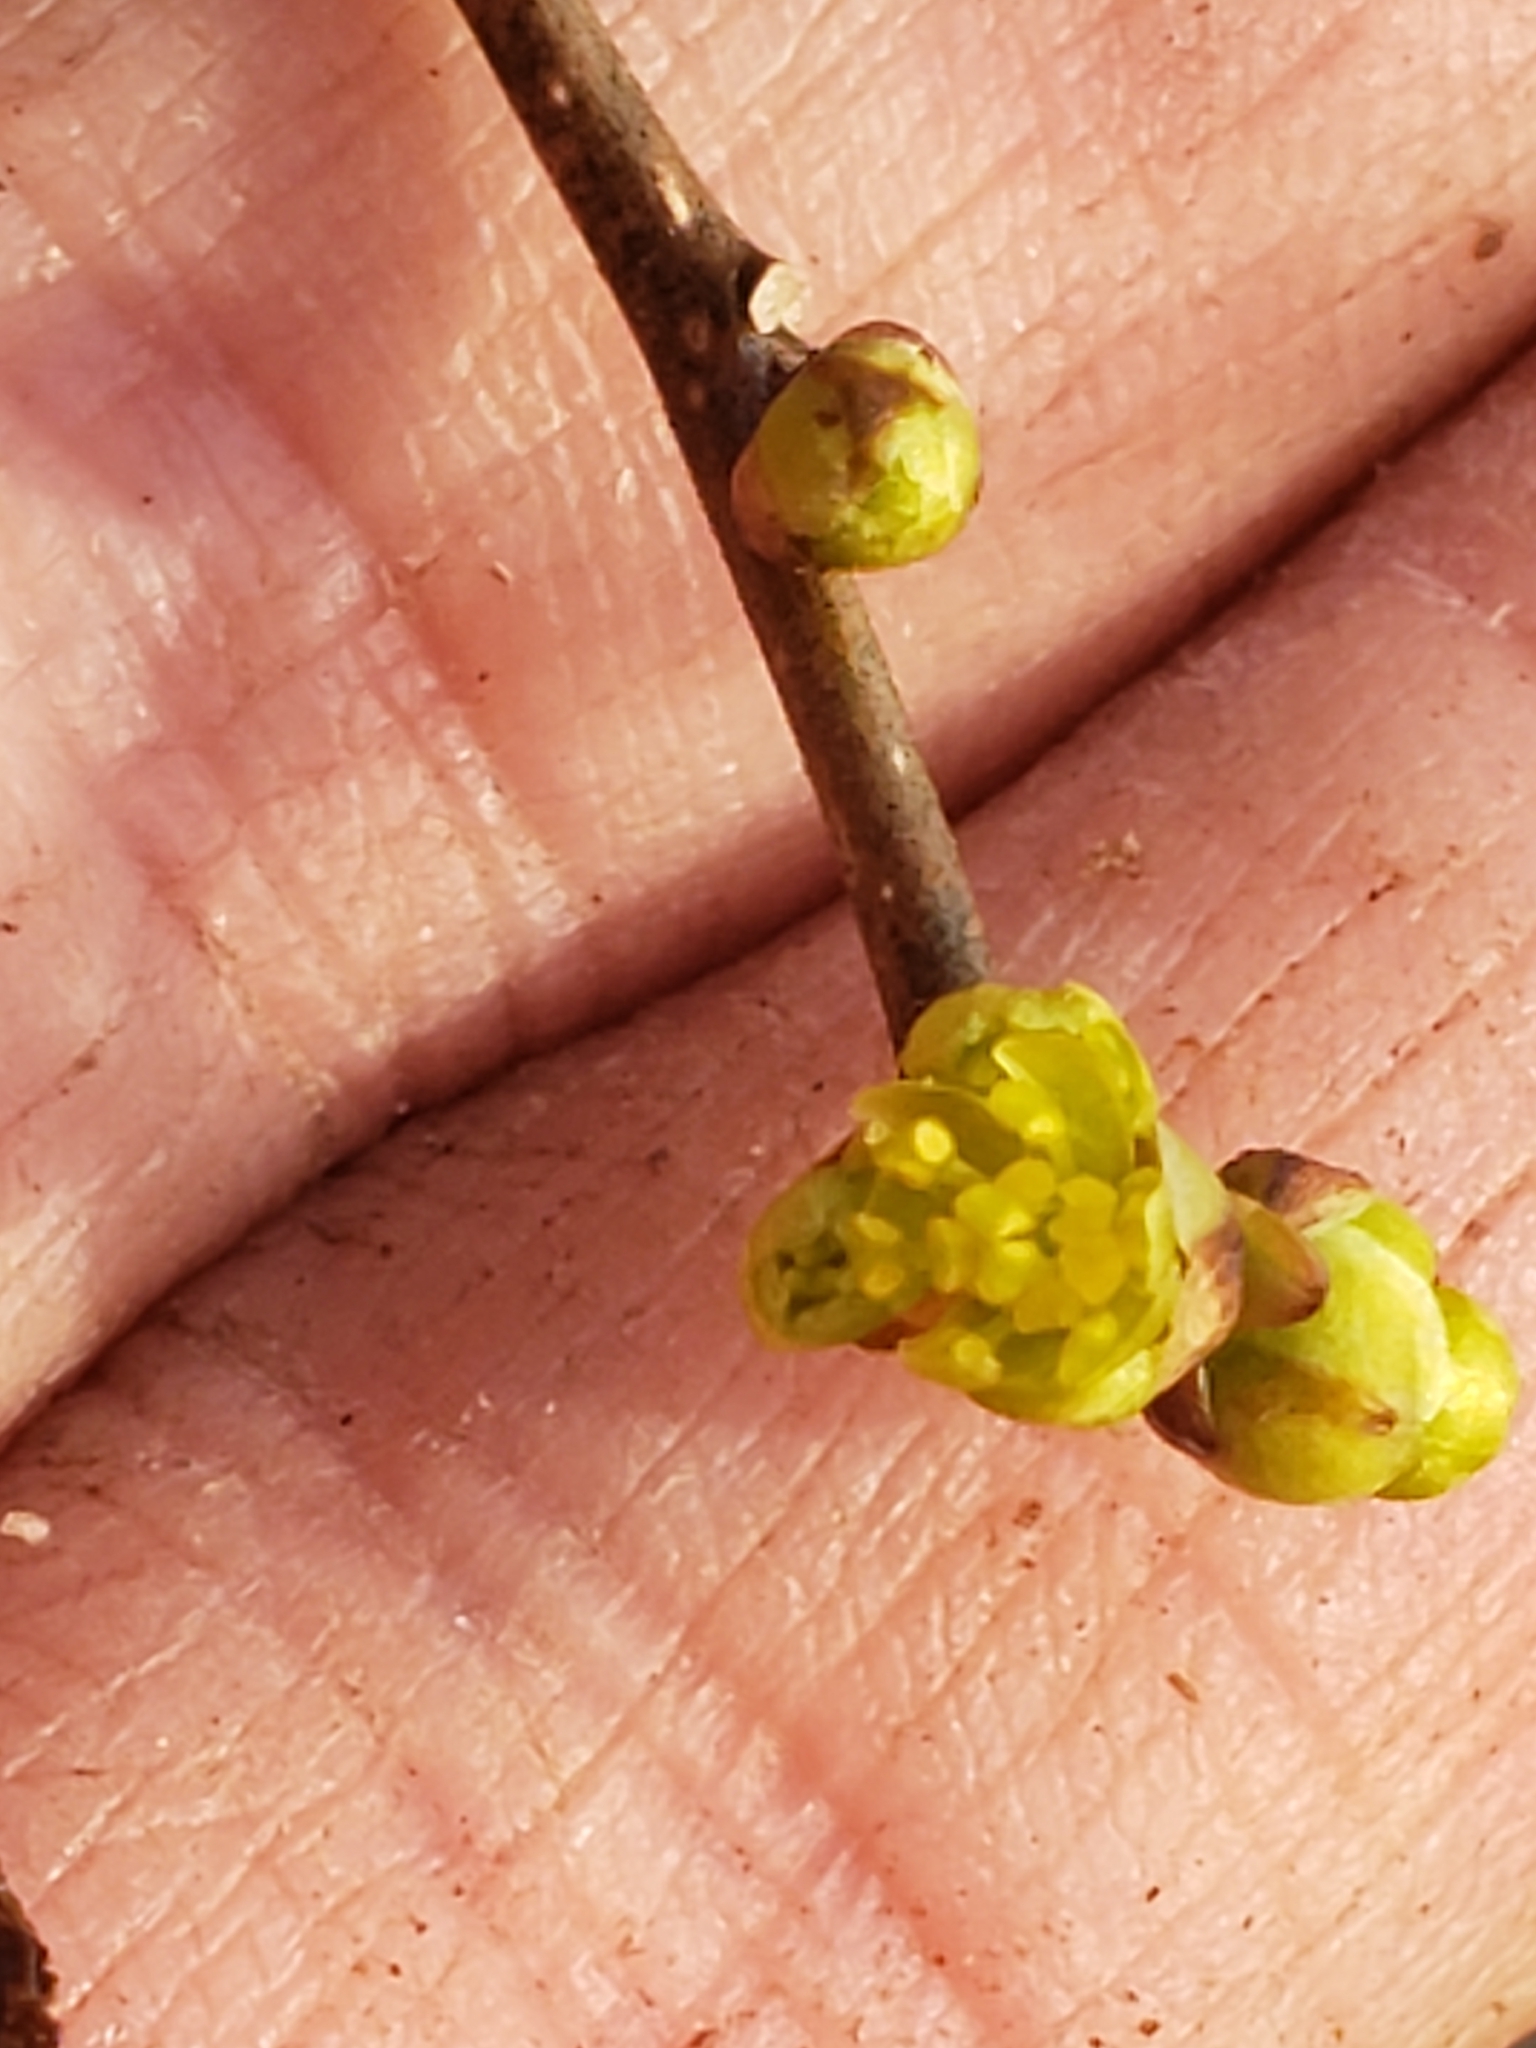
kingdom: Plantae
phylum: Tracheophyta
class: Magnoliopsida
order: Laurales
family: Lauraceae
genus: Lindera
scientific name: Lindera benzoin
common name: Spicebush
